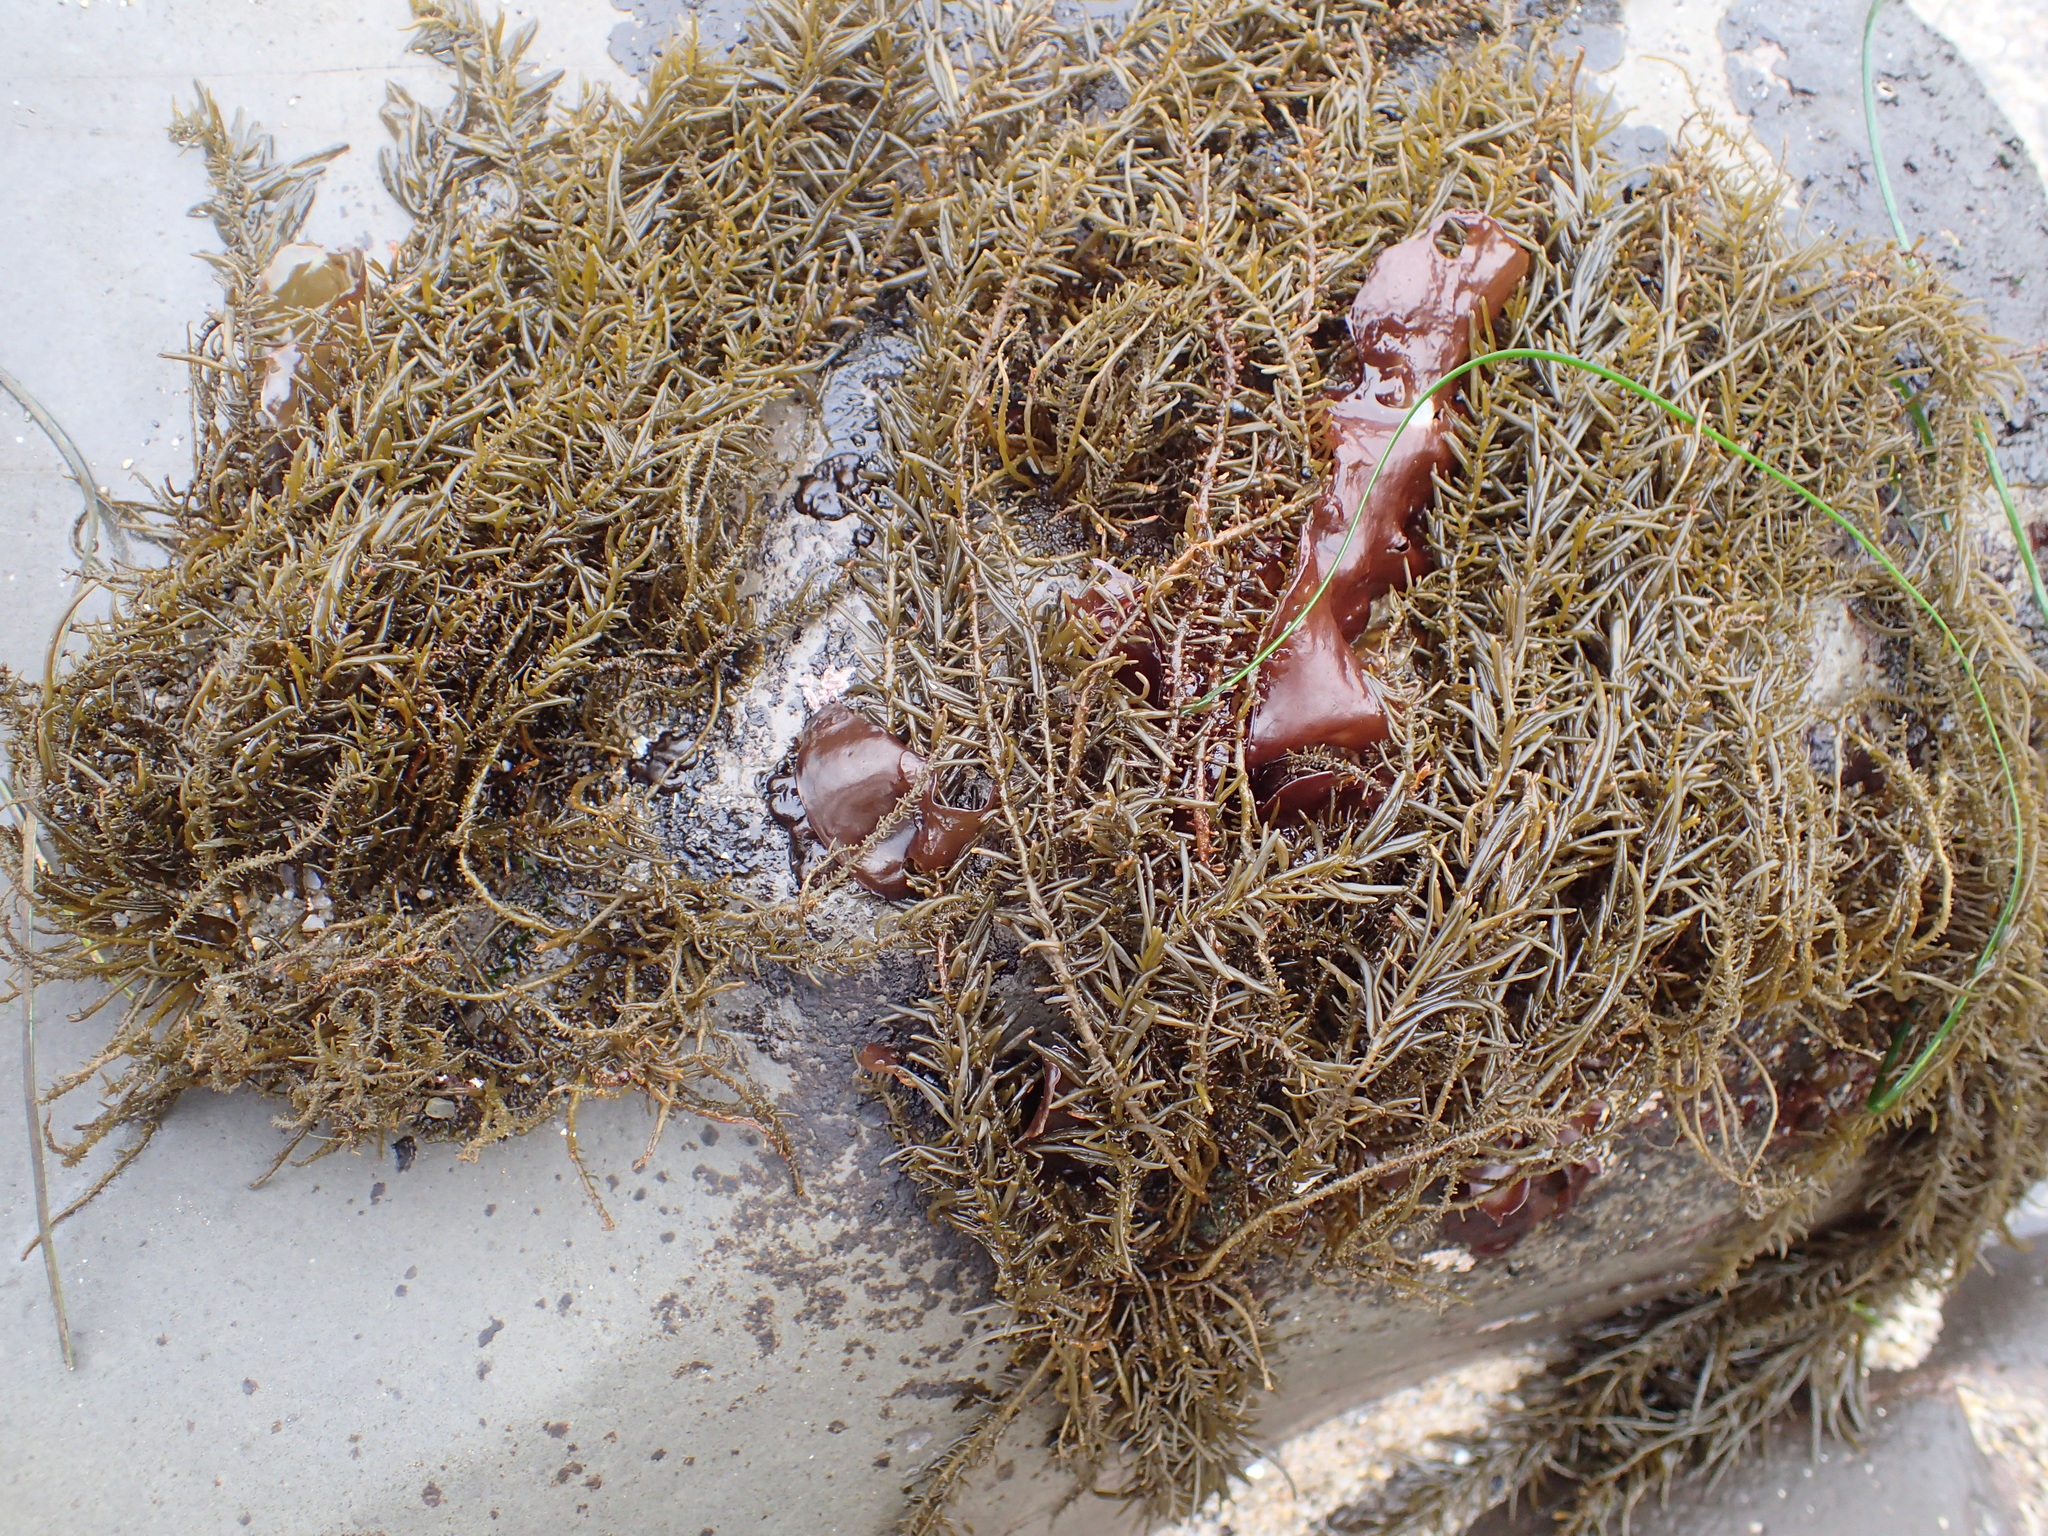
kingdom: Chromista
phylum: Ochrophyta
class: Phaeophyceae
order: Scytosiphonales
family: Scytosiphonaceae
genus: Analipus
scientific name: Analipus japonicus
